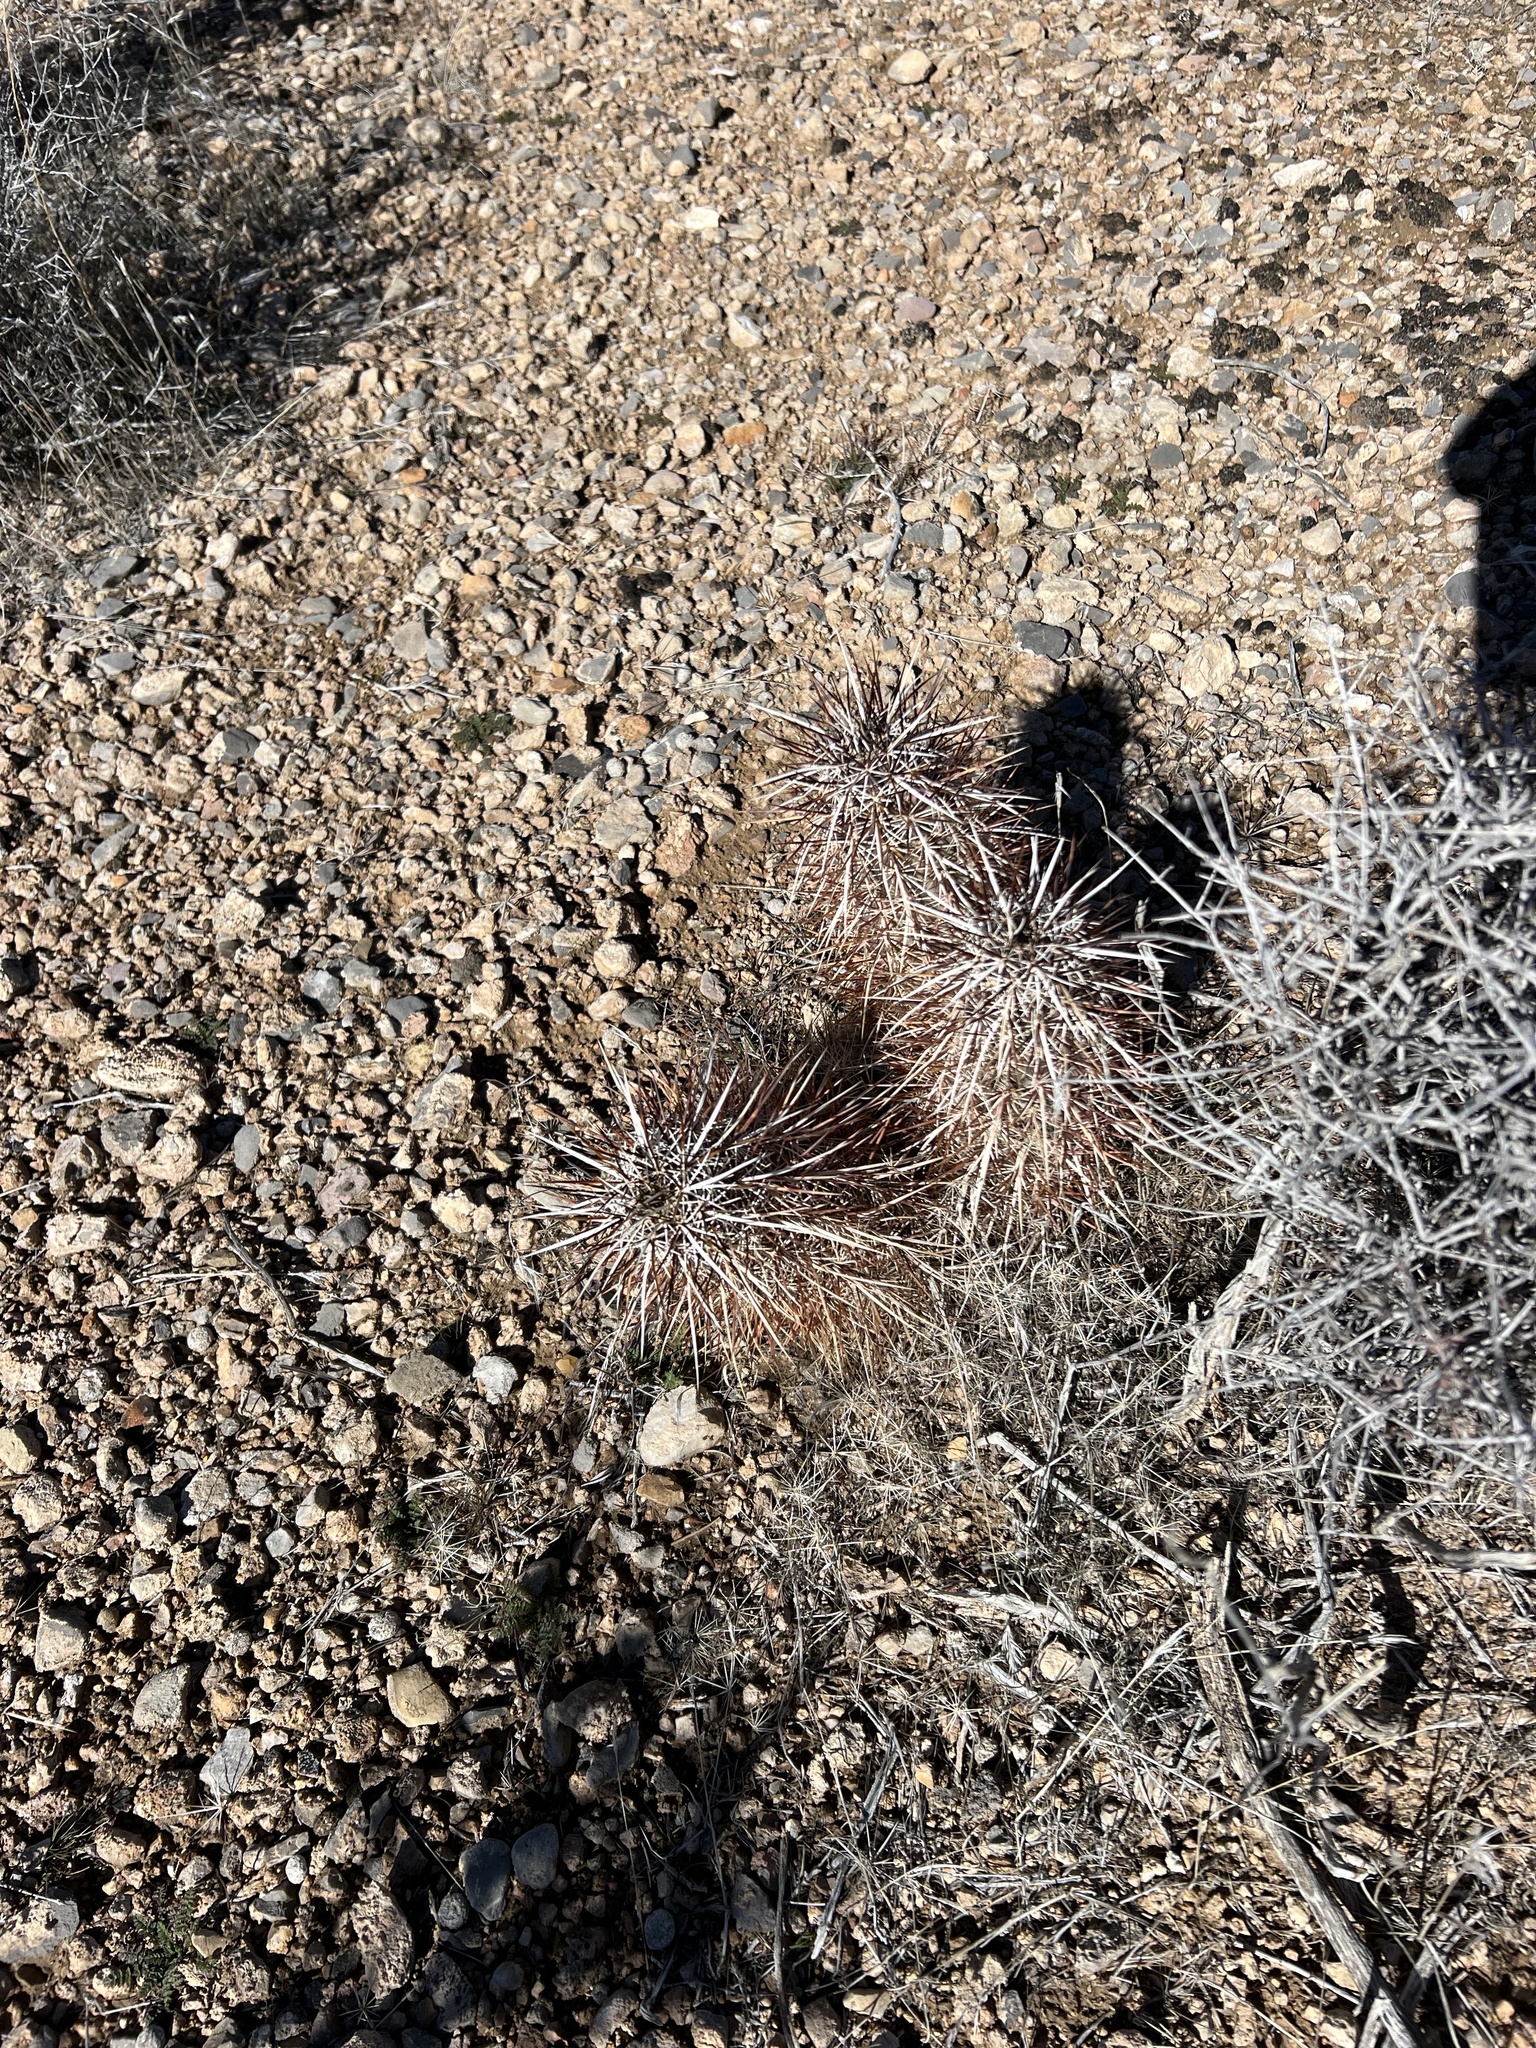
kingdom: Plantae
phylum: Tracheophyta
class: Magnoliopsida
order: Caryophyllales
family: Cactaceae
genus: Echinocereus
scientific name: Echinocereus engelmannii
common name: Engelmann's hedgehog cactus
